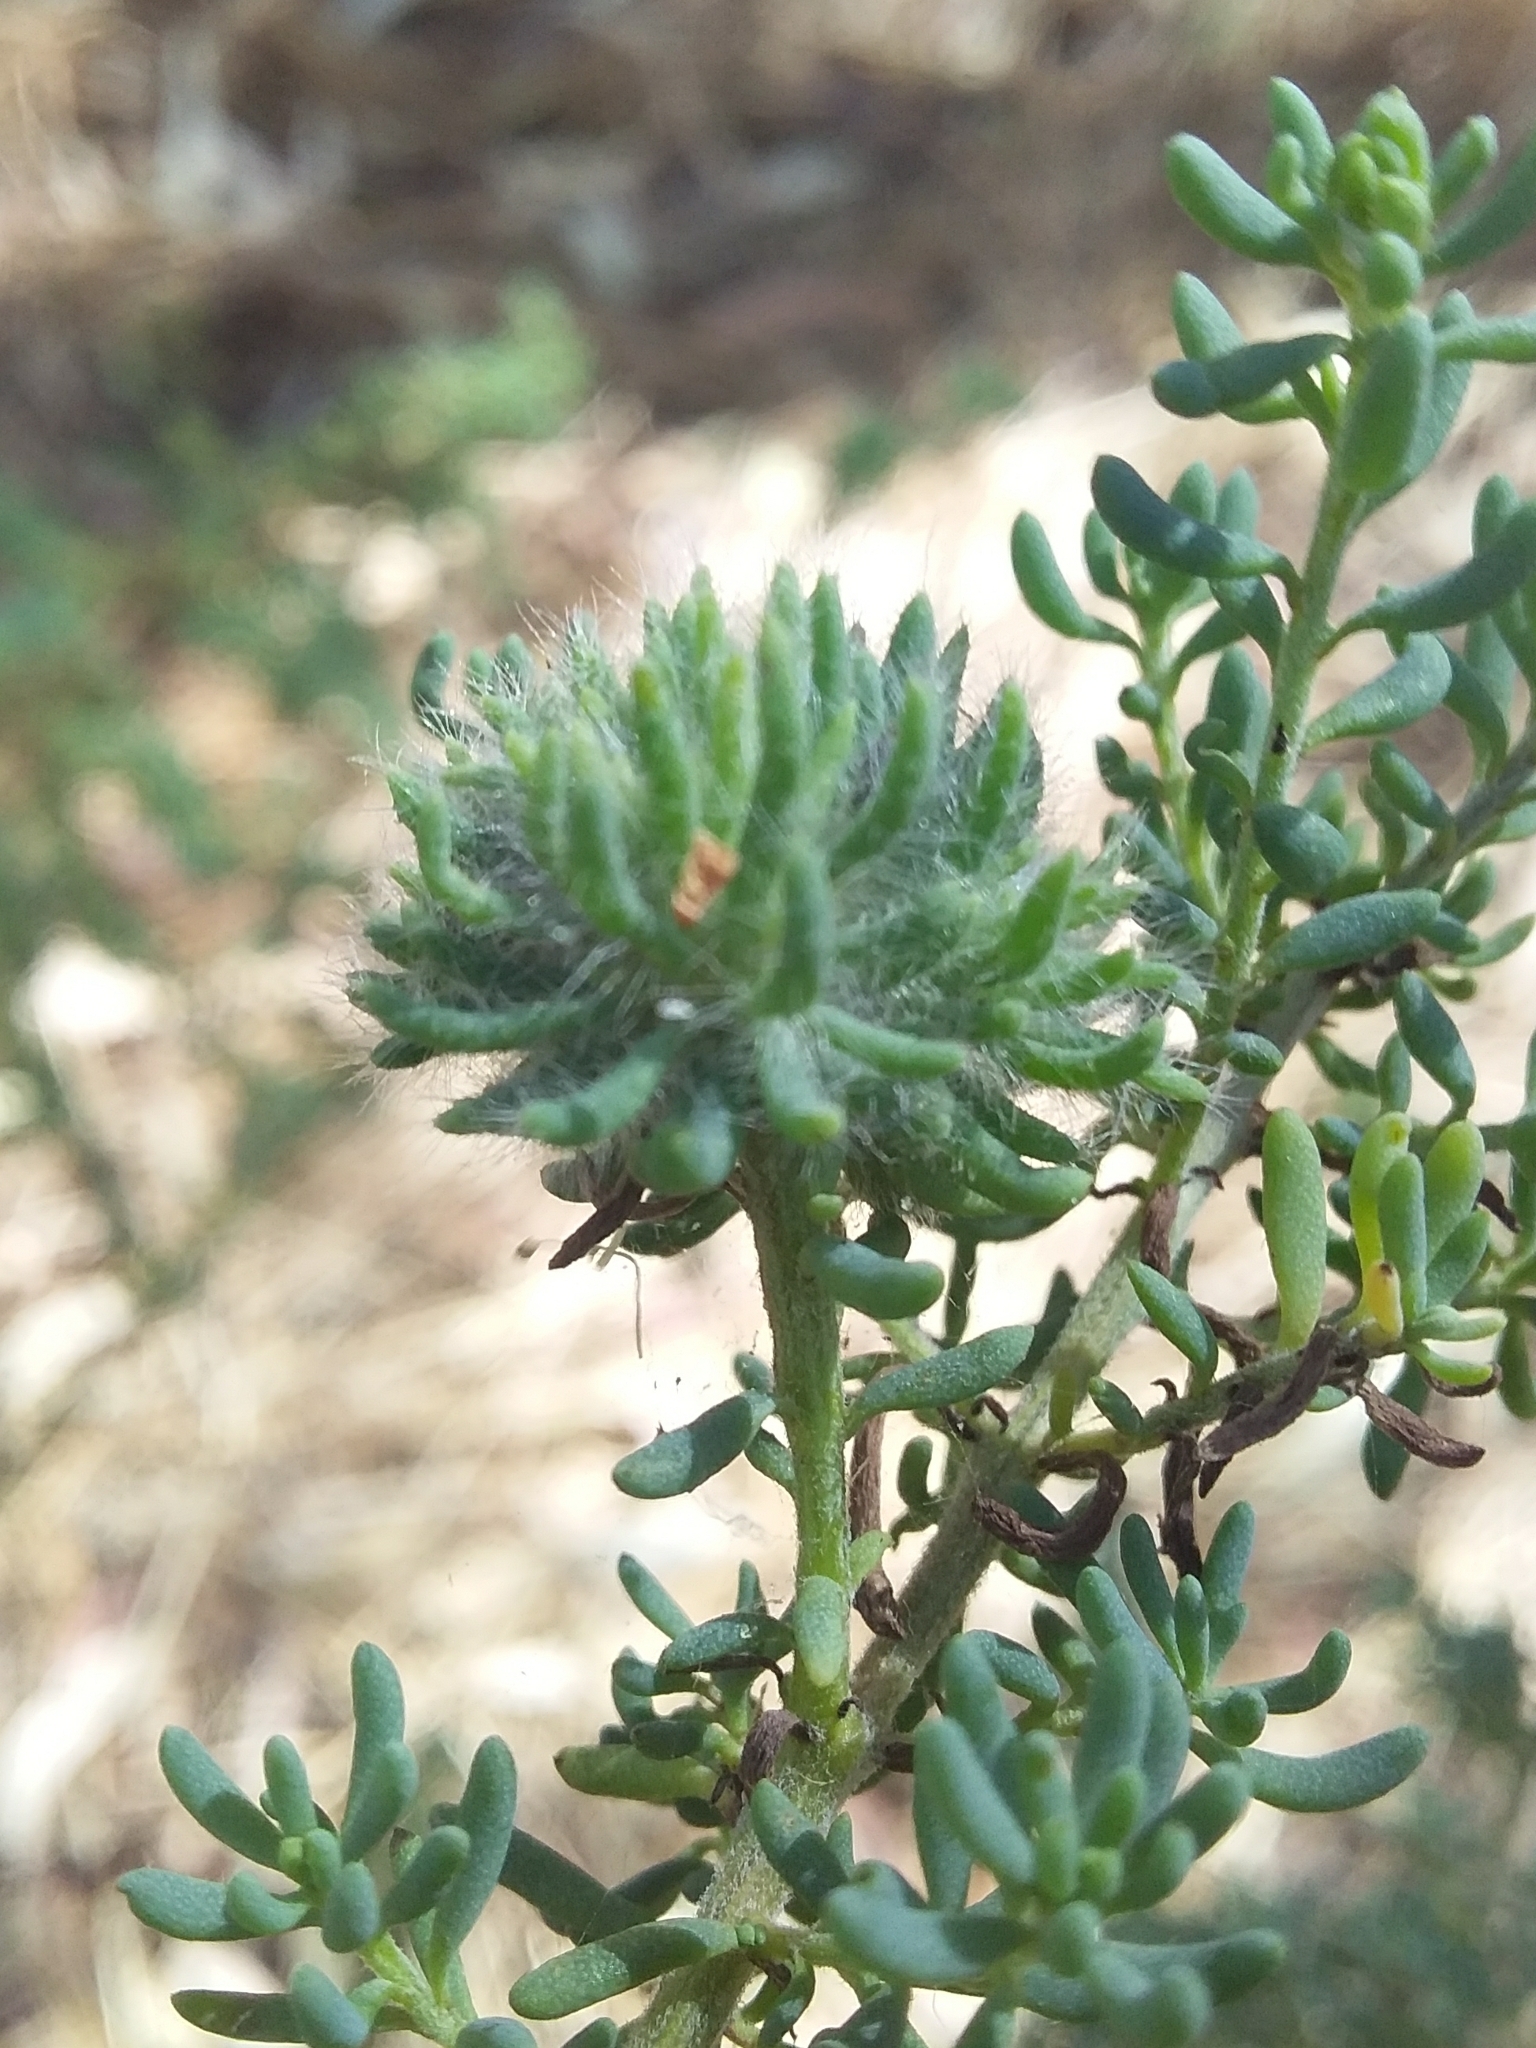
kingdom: Animalia
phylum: Arthropoda
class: Insecta
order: Diptera
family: Cecidomyiidae
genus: Asphondylia
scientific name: Asphondylia tonsura
